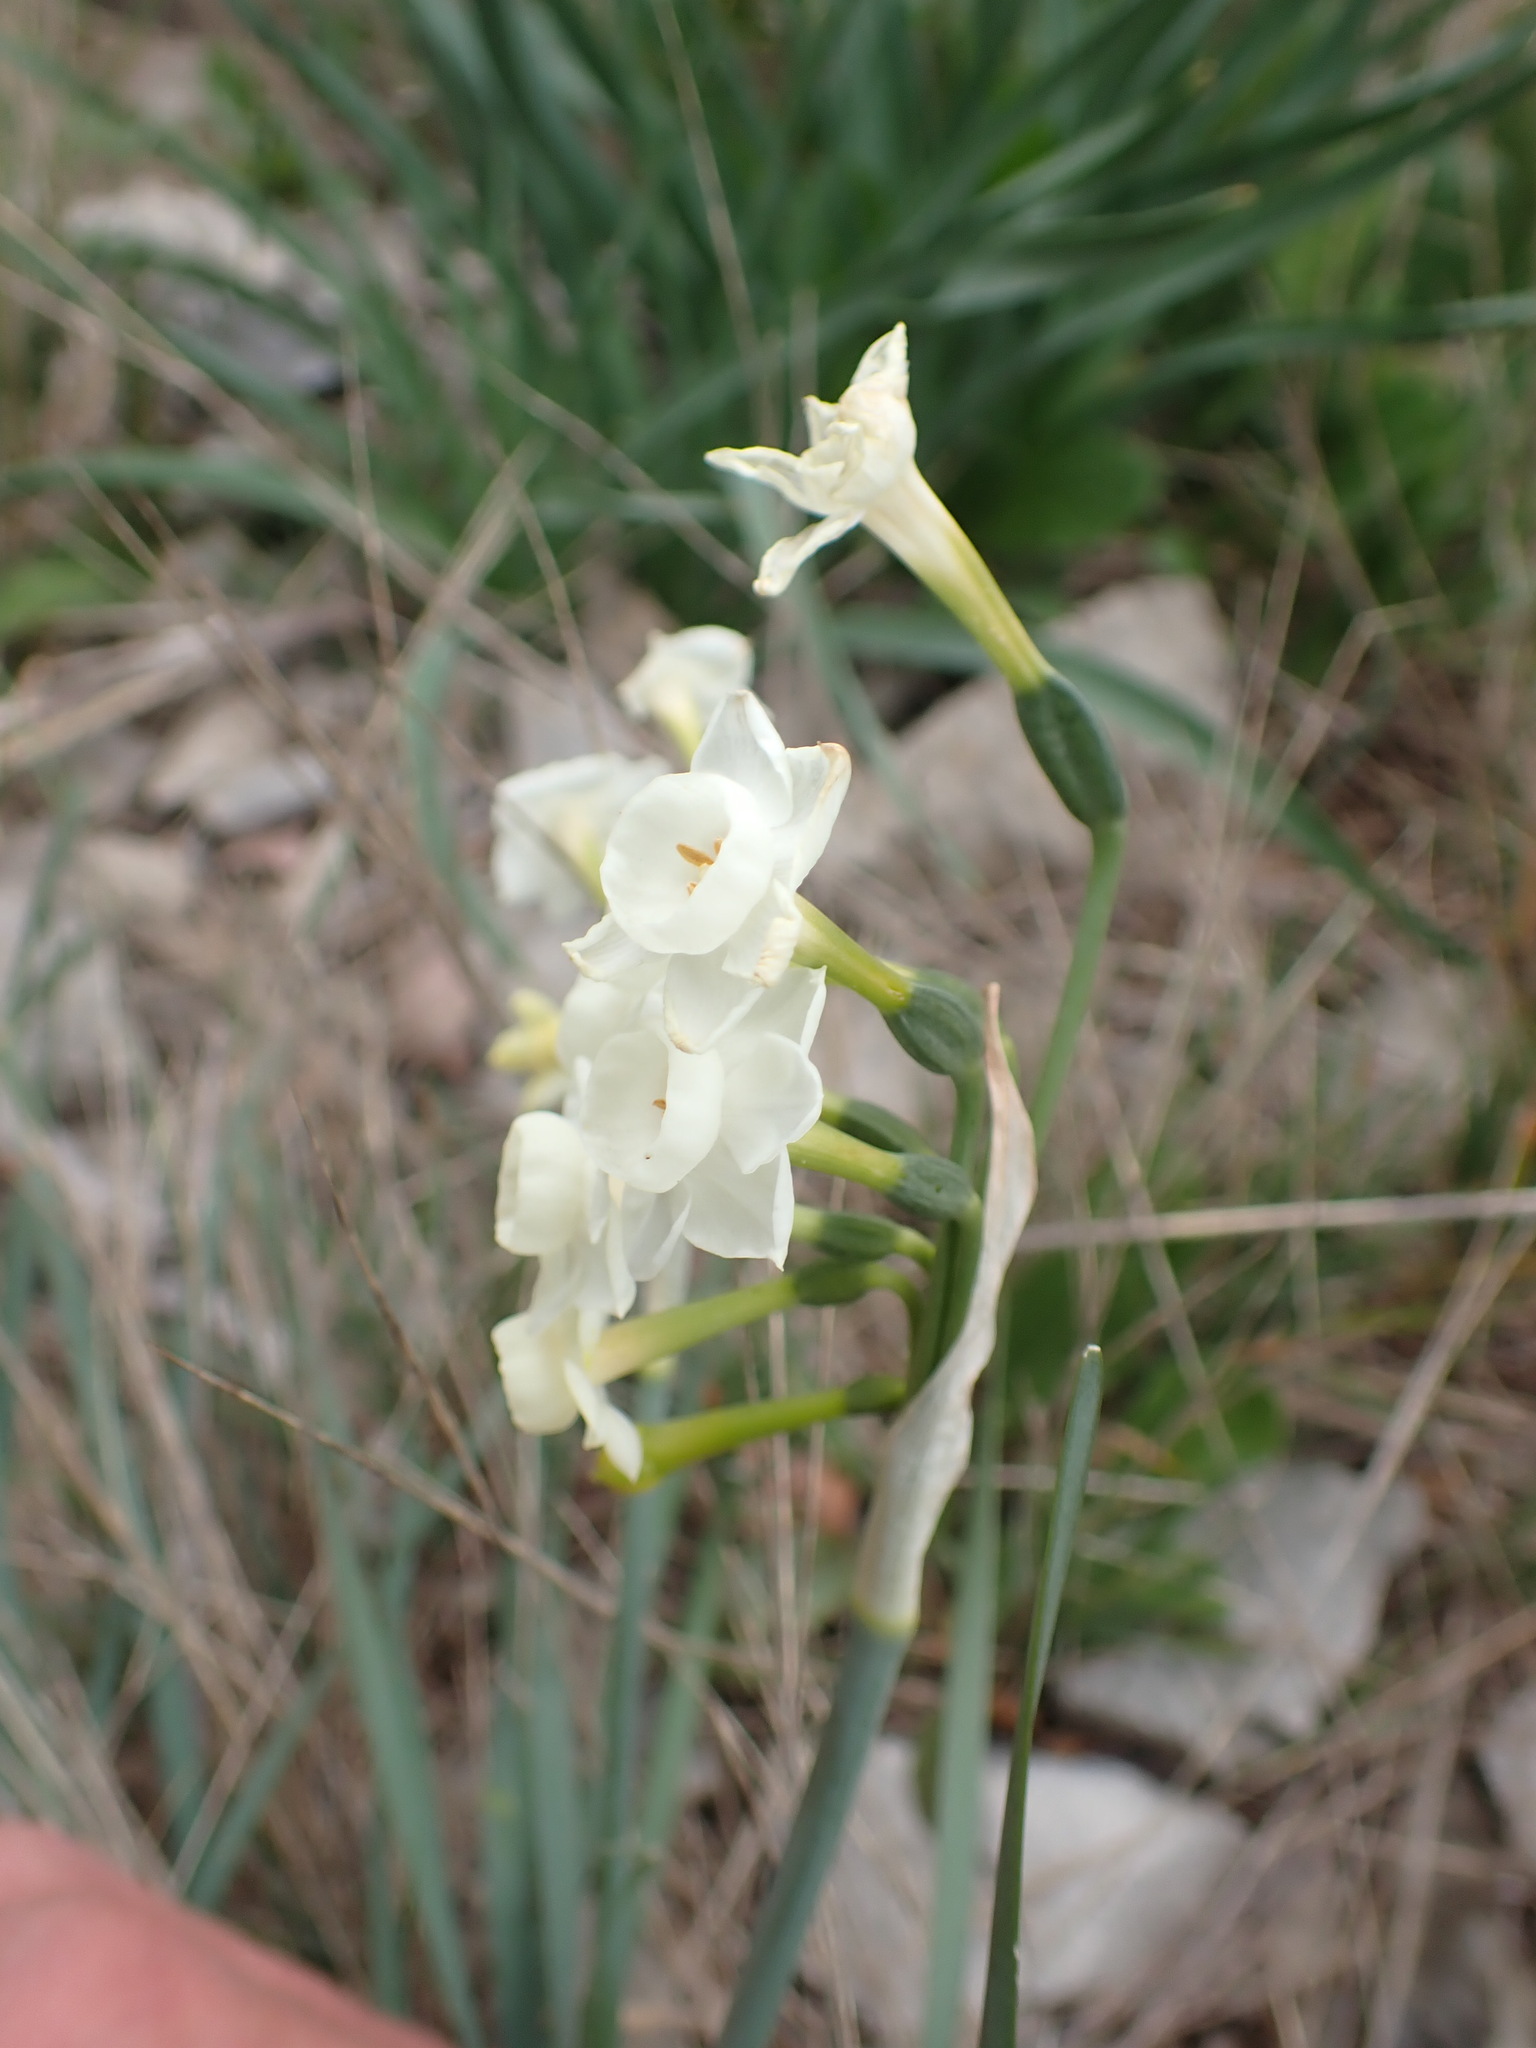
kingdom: Plantae
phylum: Tracheophyta
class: Liliopsida
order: Asparagales
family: Amaryllidaceae
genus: Narcissus
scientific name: Narcissus dubius
